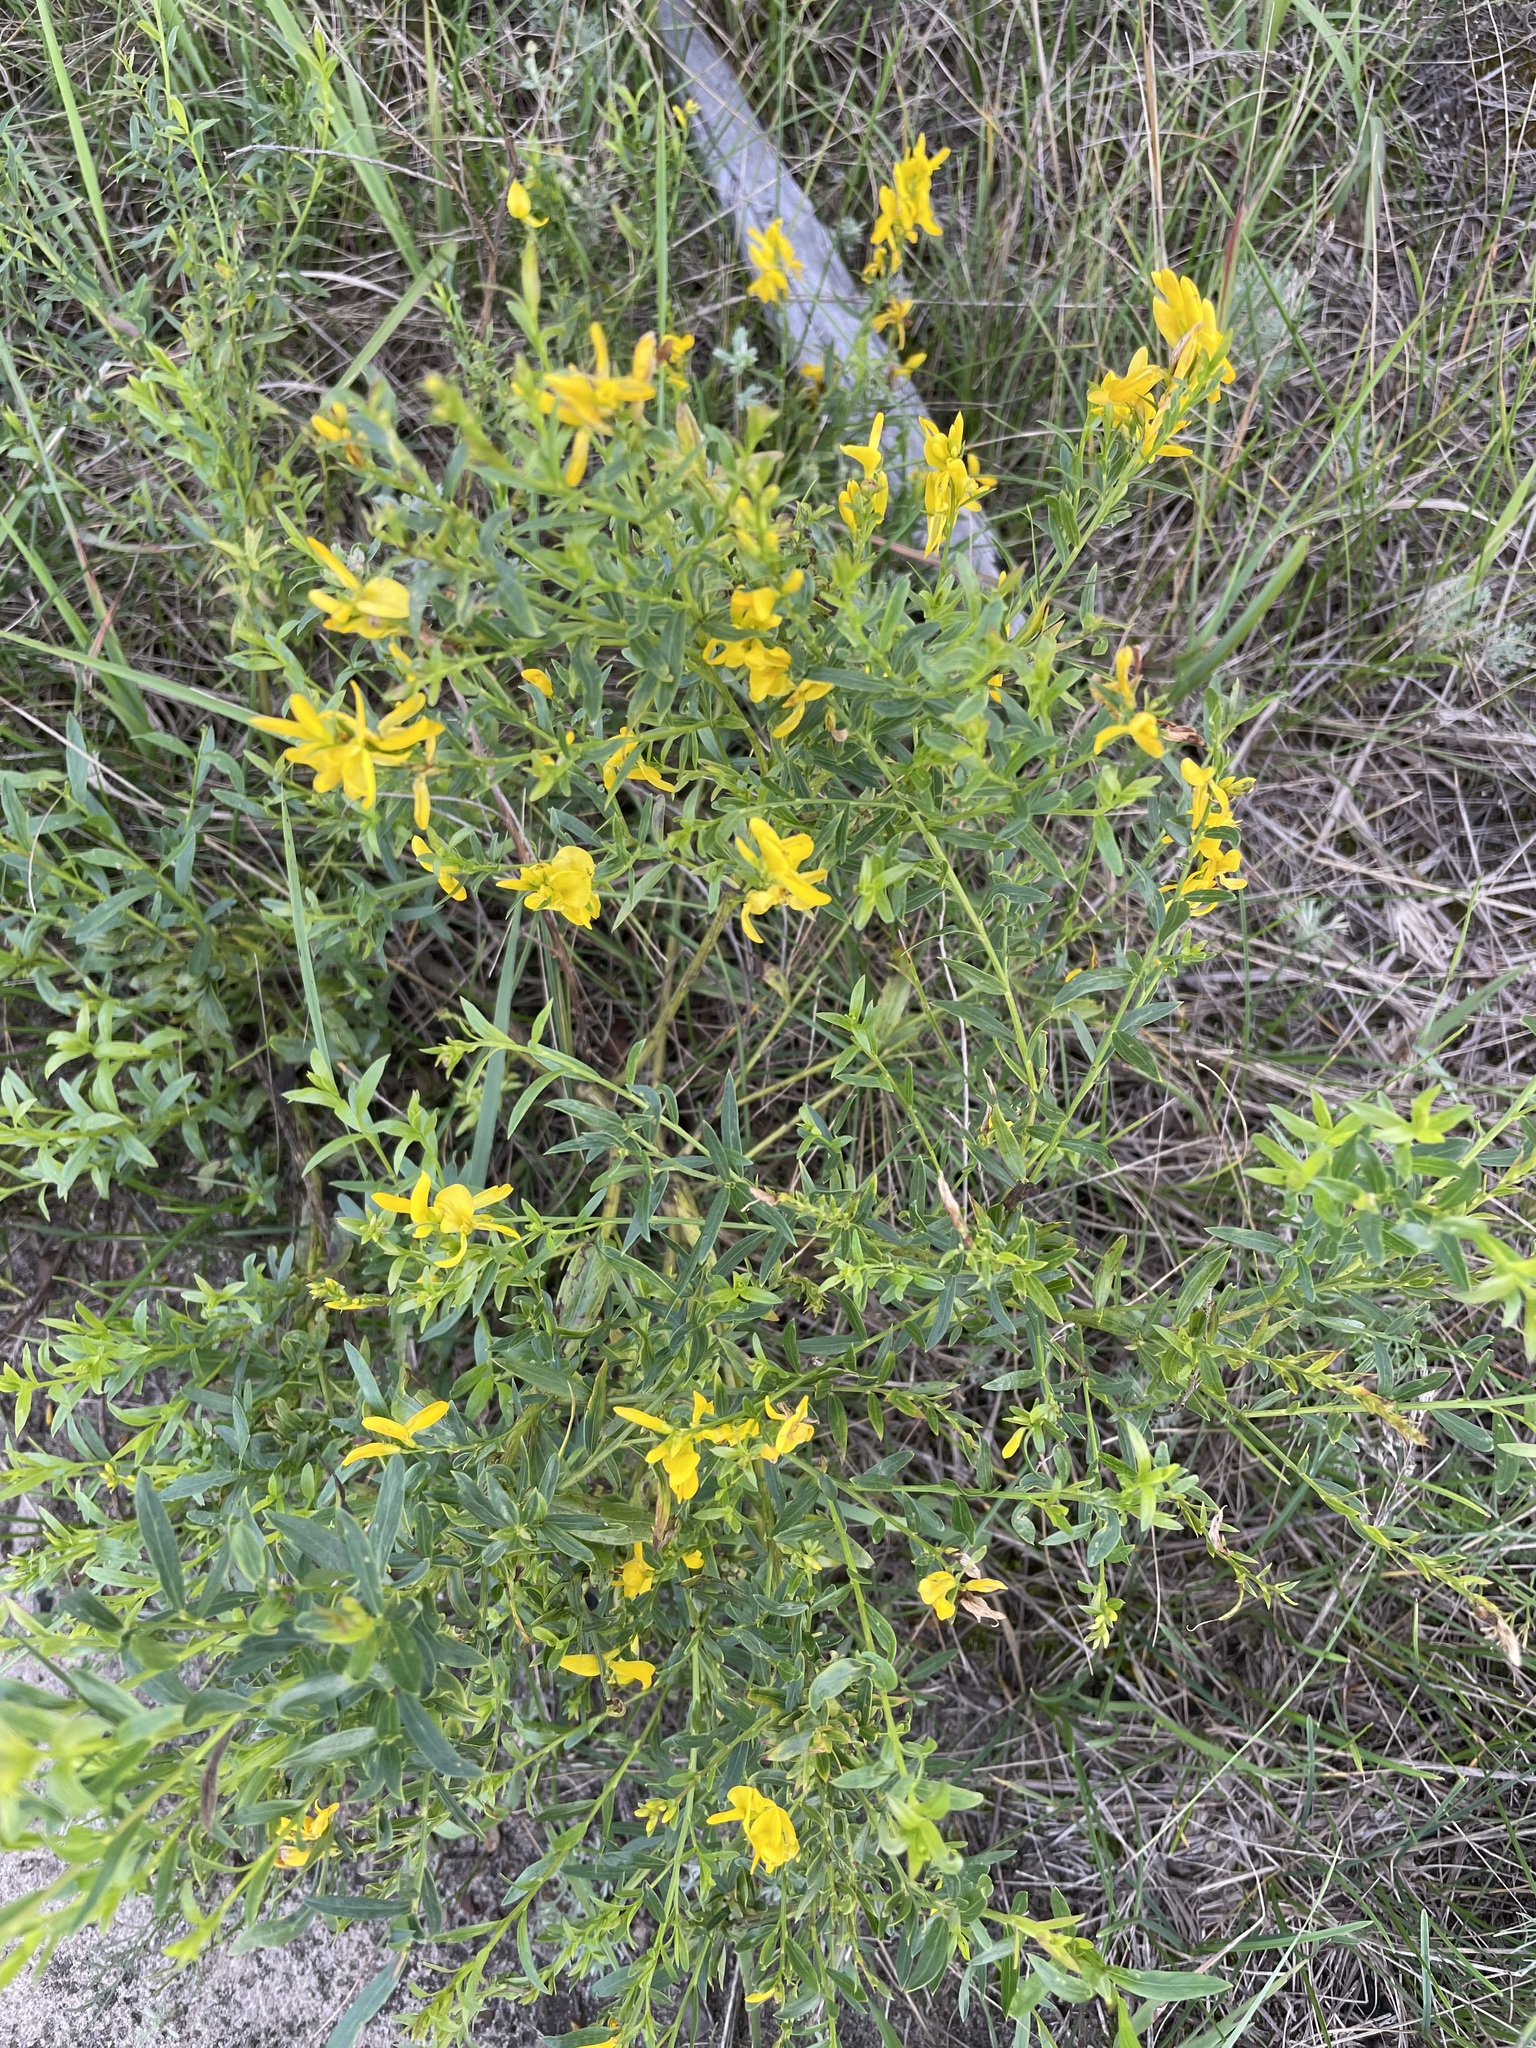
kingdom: Plantae
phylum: Tracheophyta
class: Magnoliopsida
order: Fabales
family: Fabaceae
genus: Genista
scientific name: Genista tinctoria
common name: Dyer's greenweed
